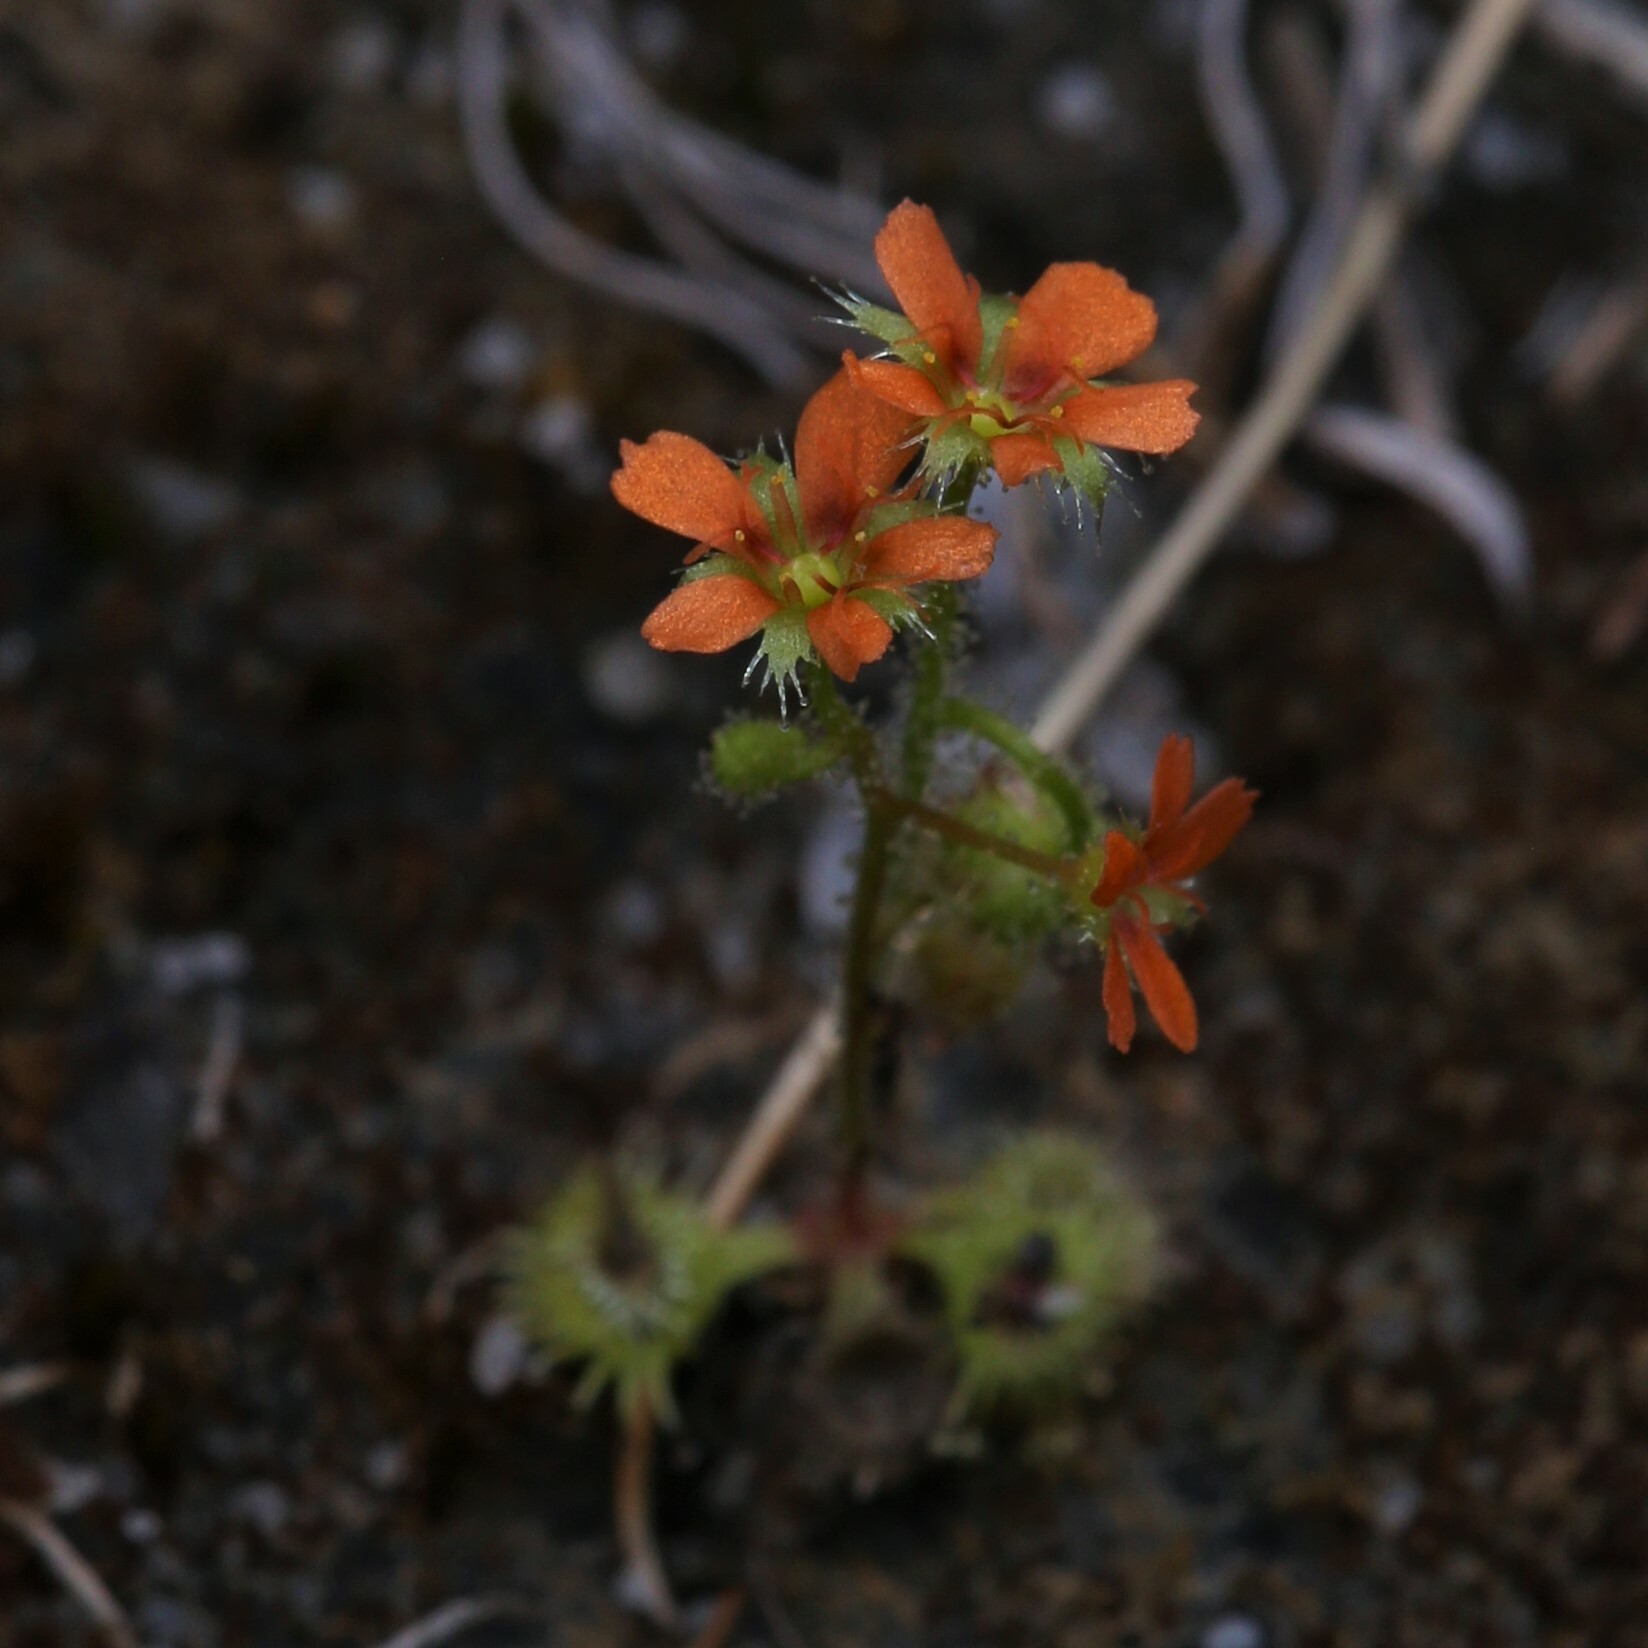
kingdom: Plantae
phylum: Tracheophyta
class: Magnoliopsida
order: Caryophyllales
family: Droseraceae
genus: Drosera
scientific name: Drosera glanduligera
